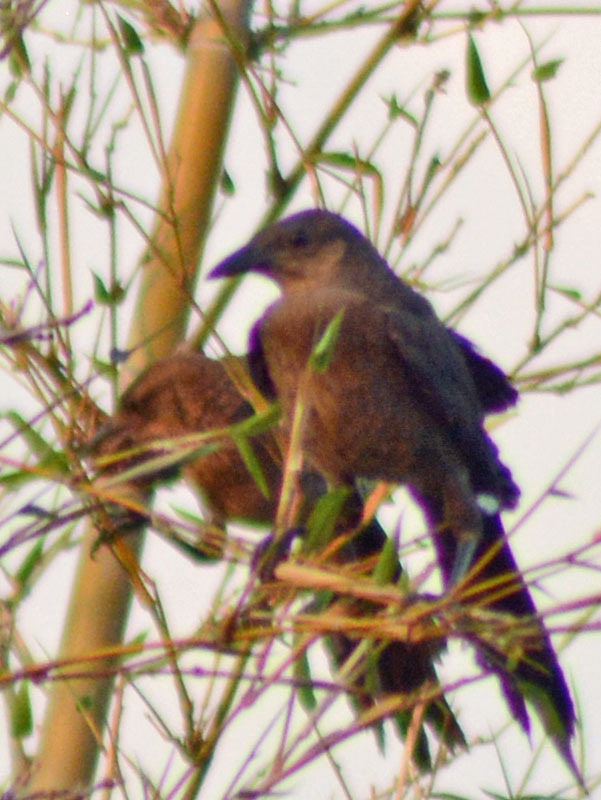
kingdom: Animalia
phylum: Chordata
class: Aves
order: Passeriformes
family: Icteridae
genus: Quiscalus
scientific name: Quiscalus mexicanus
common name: Great-tailed grackle
